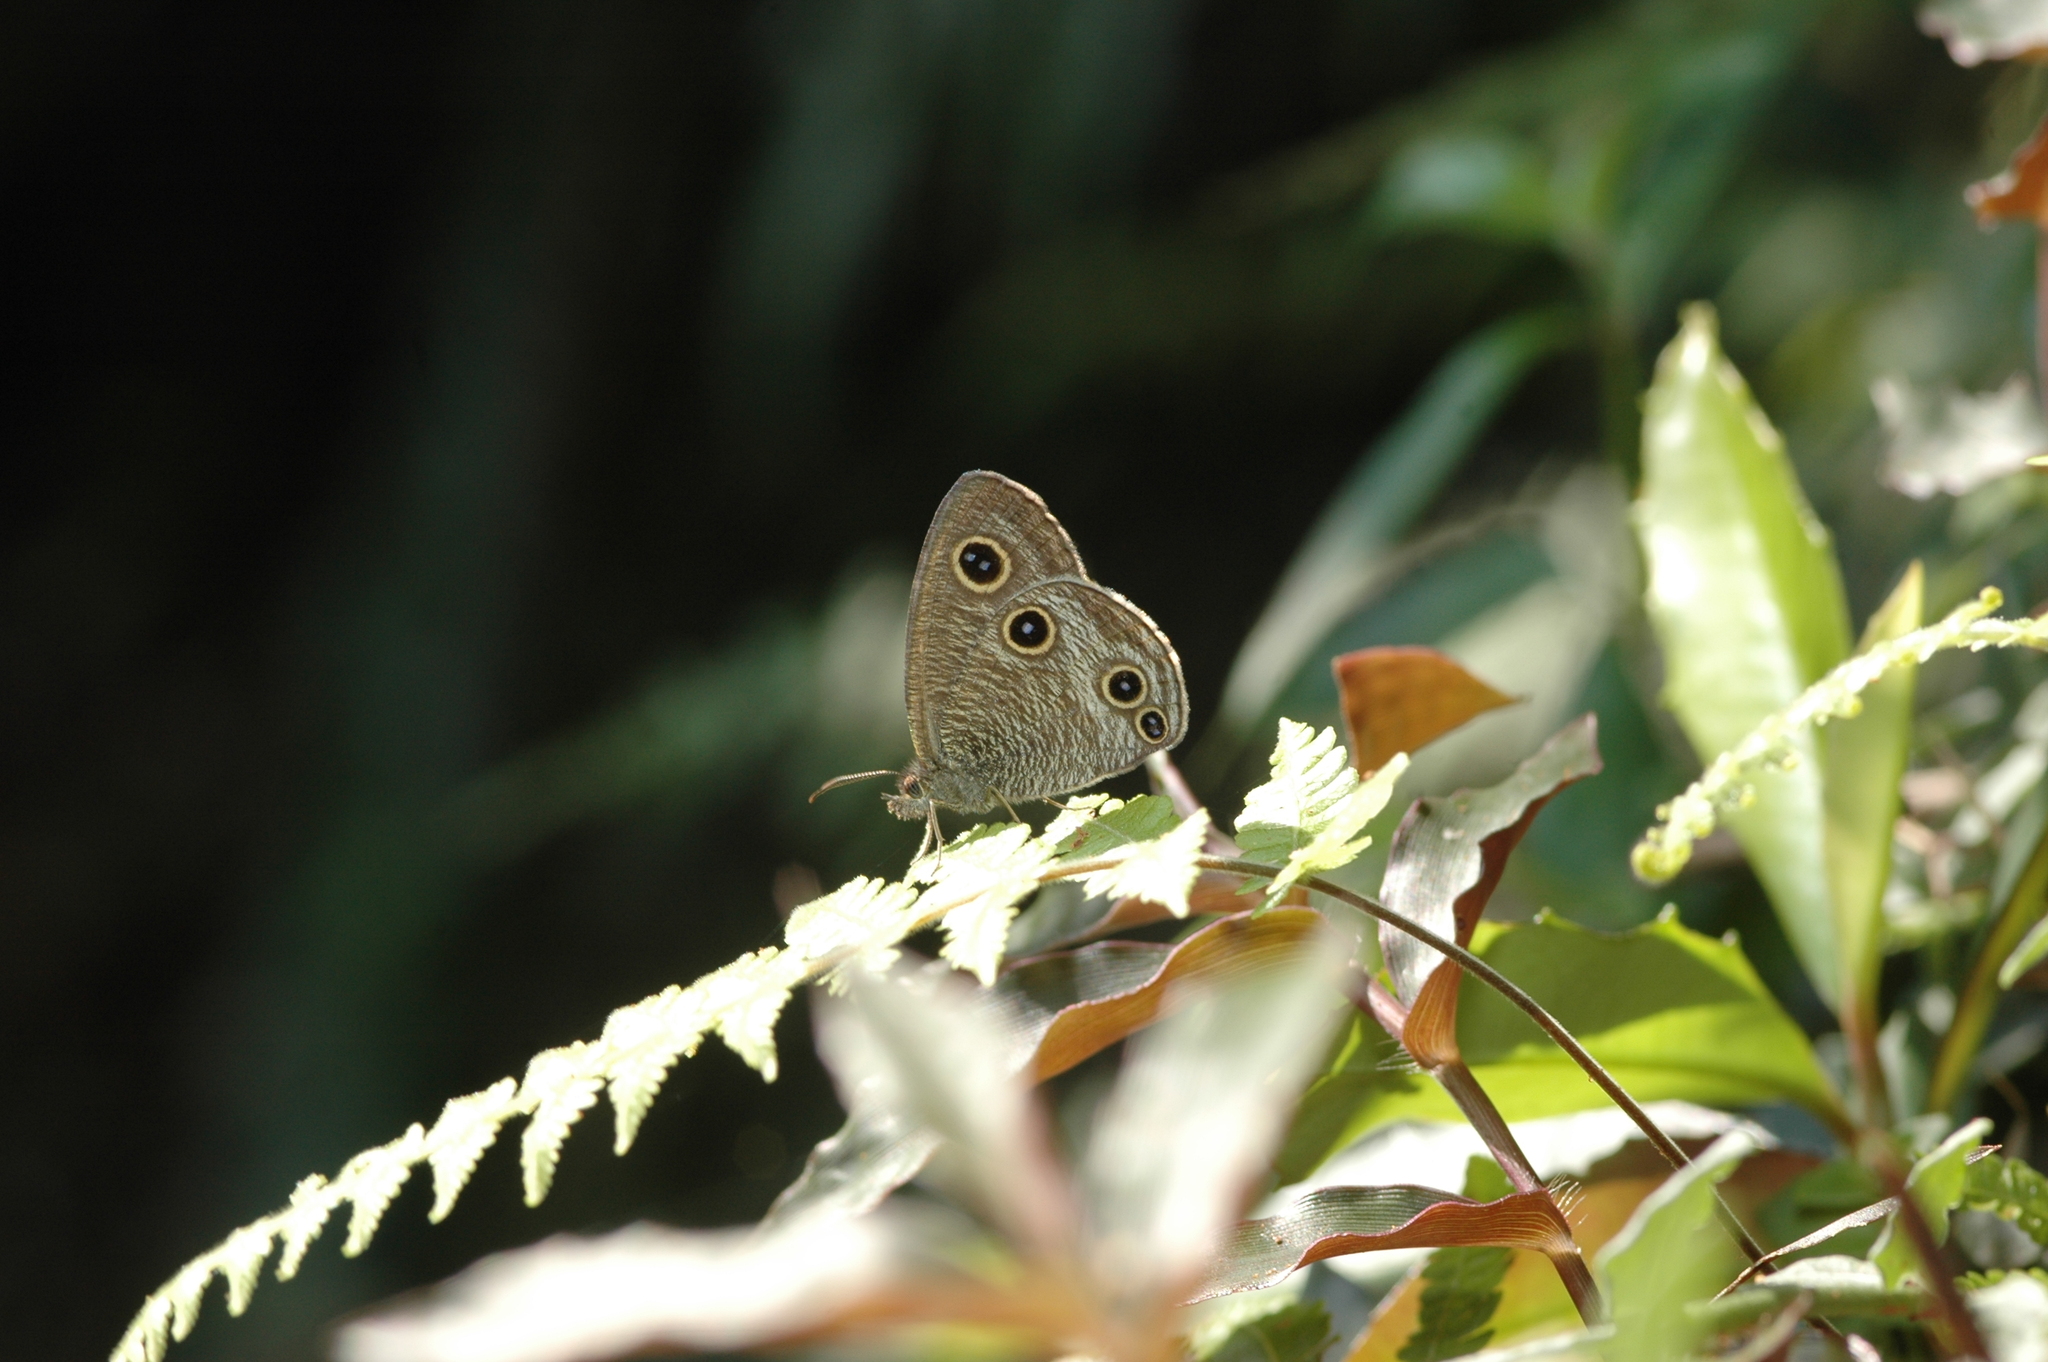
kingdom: Animalia
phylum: Arthropoda
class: Insecta
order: Lepidoptera
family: Nymphalidae
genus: Ypthima
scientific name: Ypthima multistriata
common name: Striated ringlet
